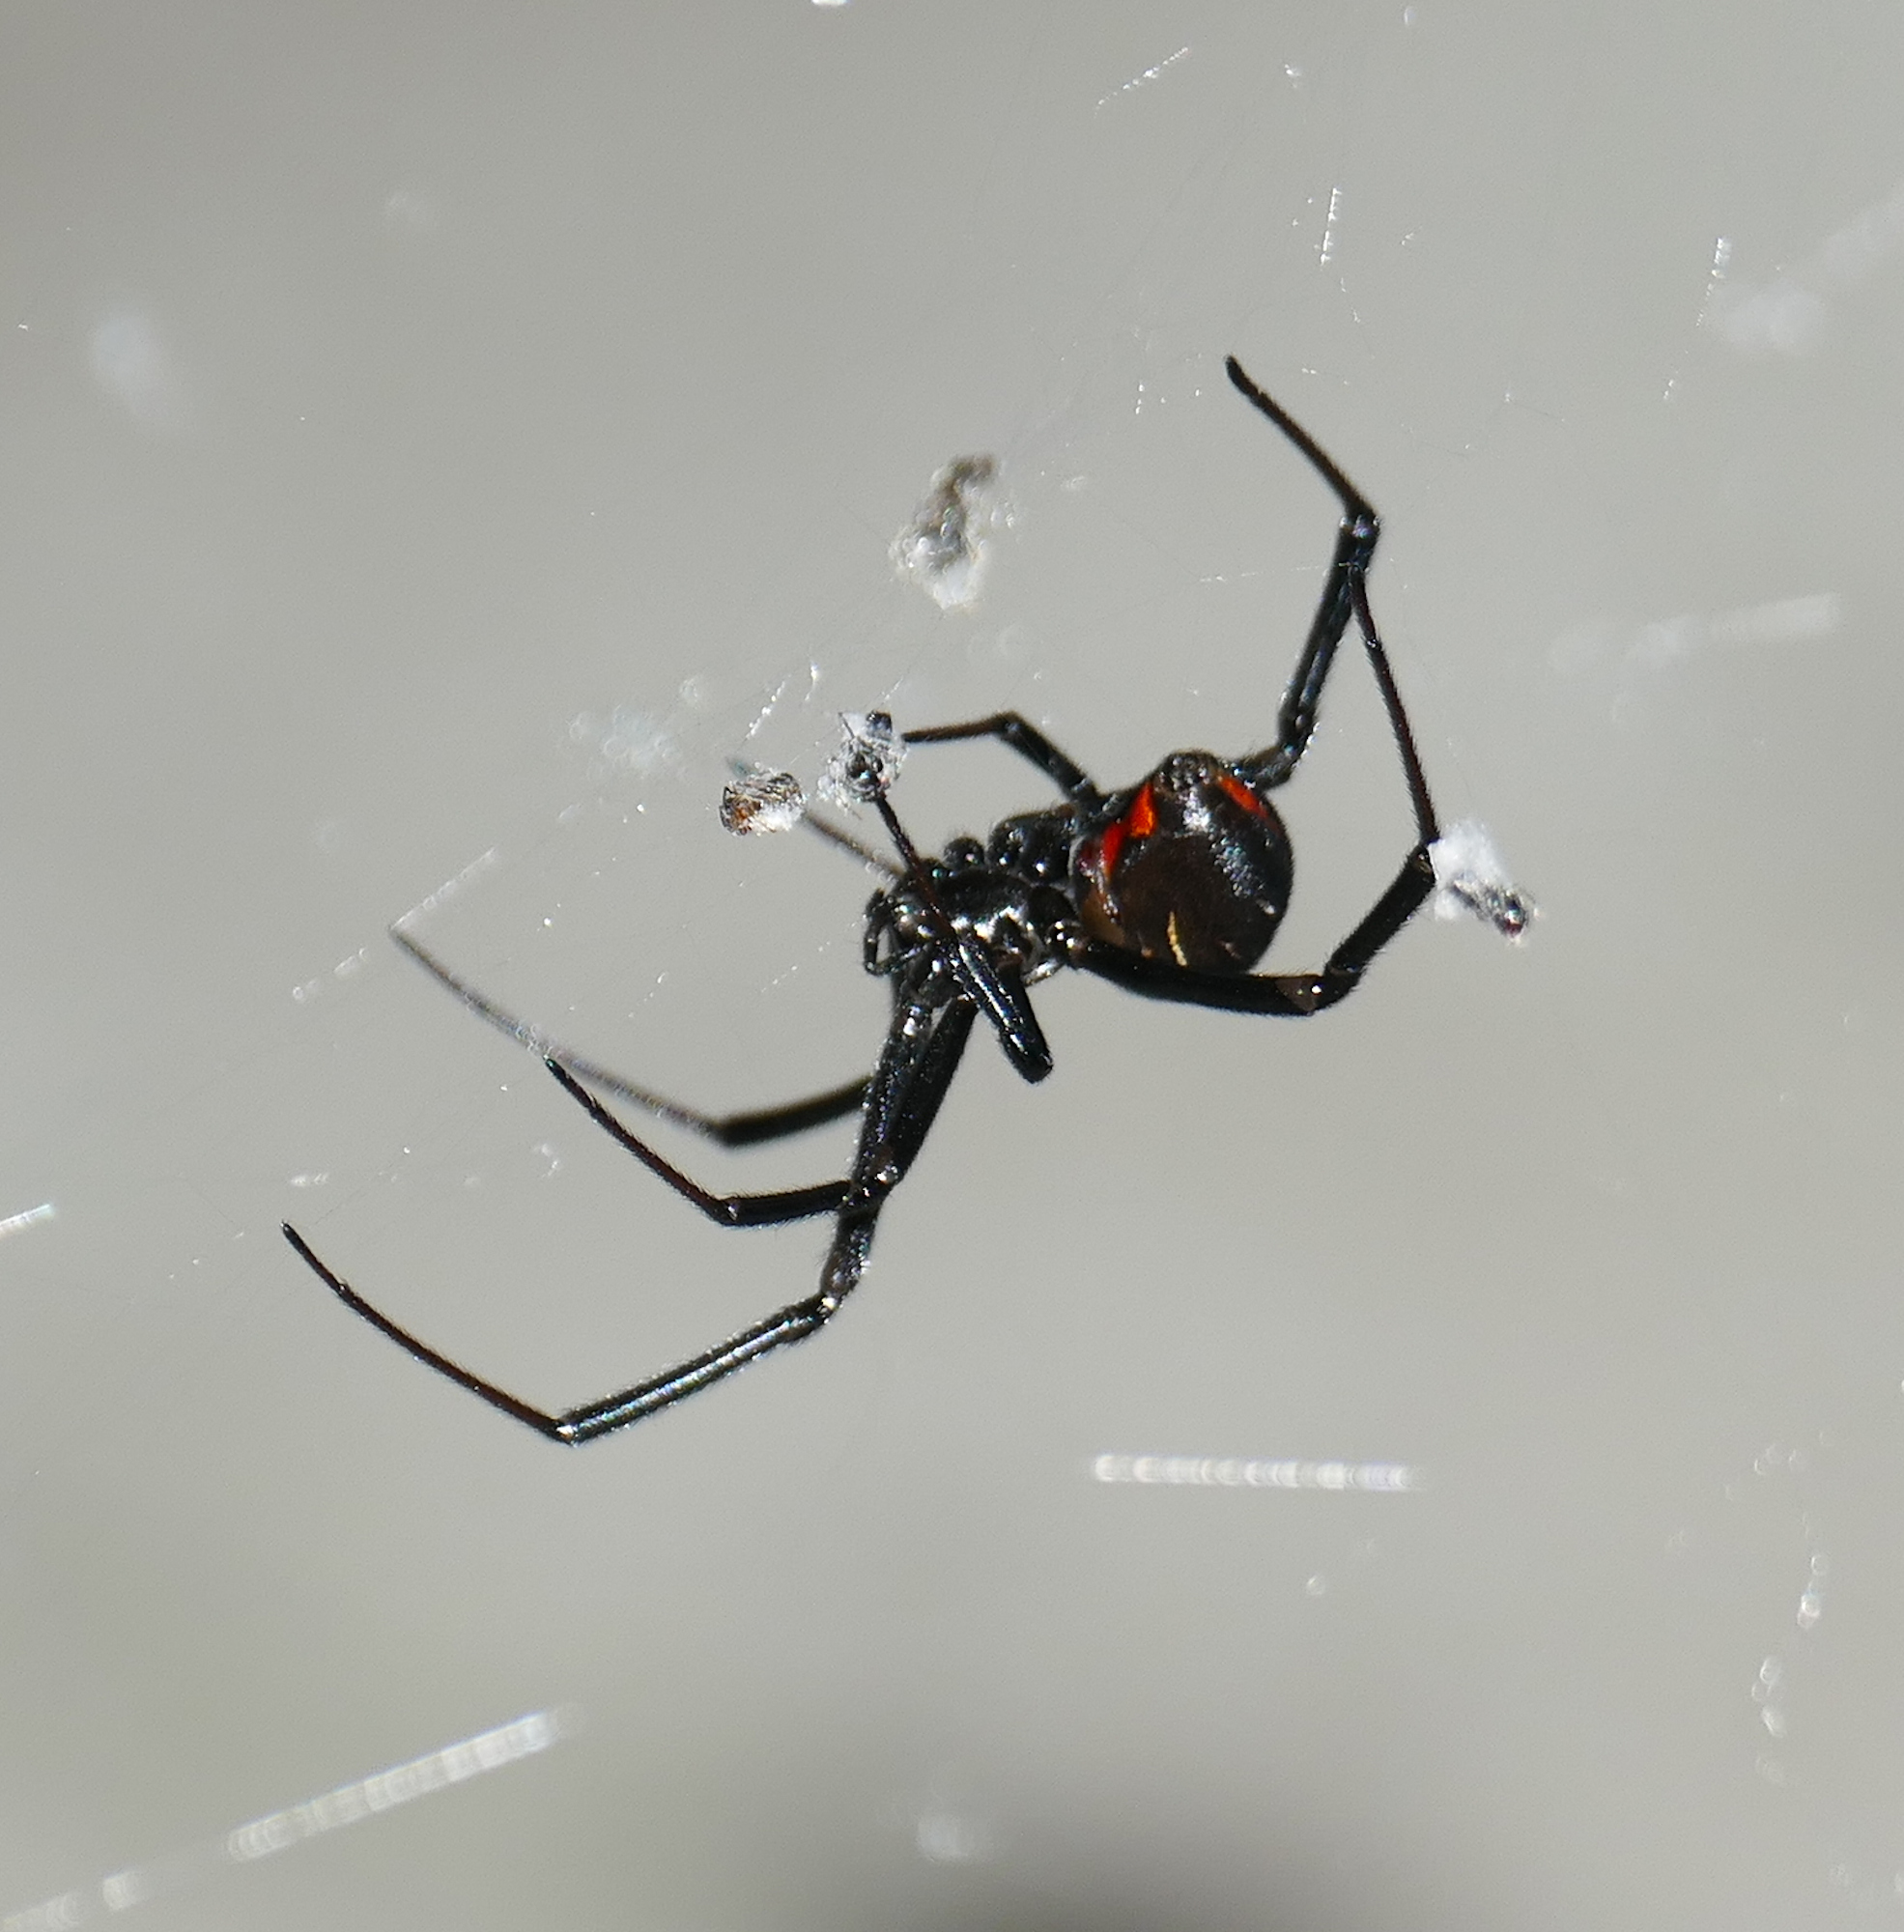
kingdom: Animalia
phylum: Arthropoda
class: Arachnida
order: Araneae
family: Theridiidae
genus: Latrodectus
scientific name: Latrodectus hesperus
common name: Western black widow
